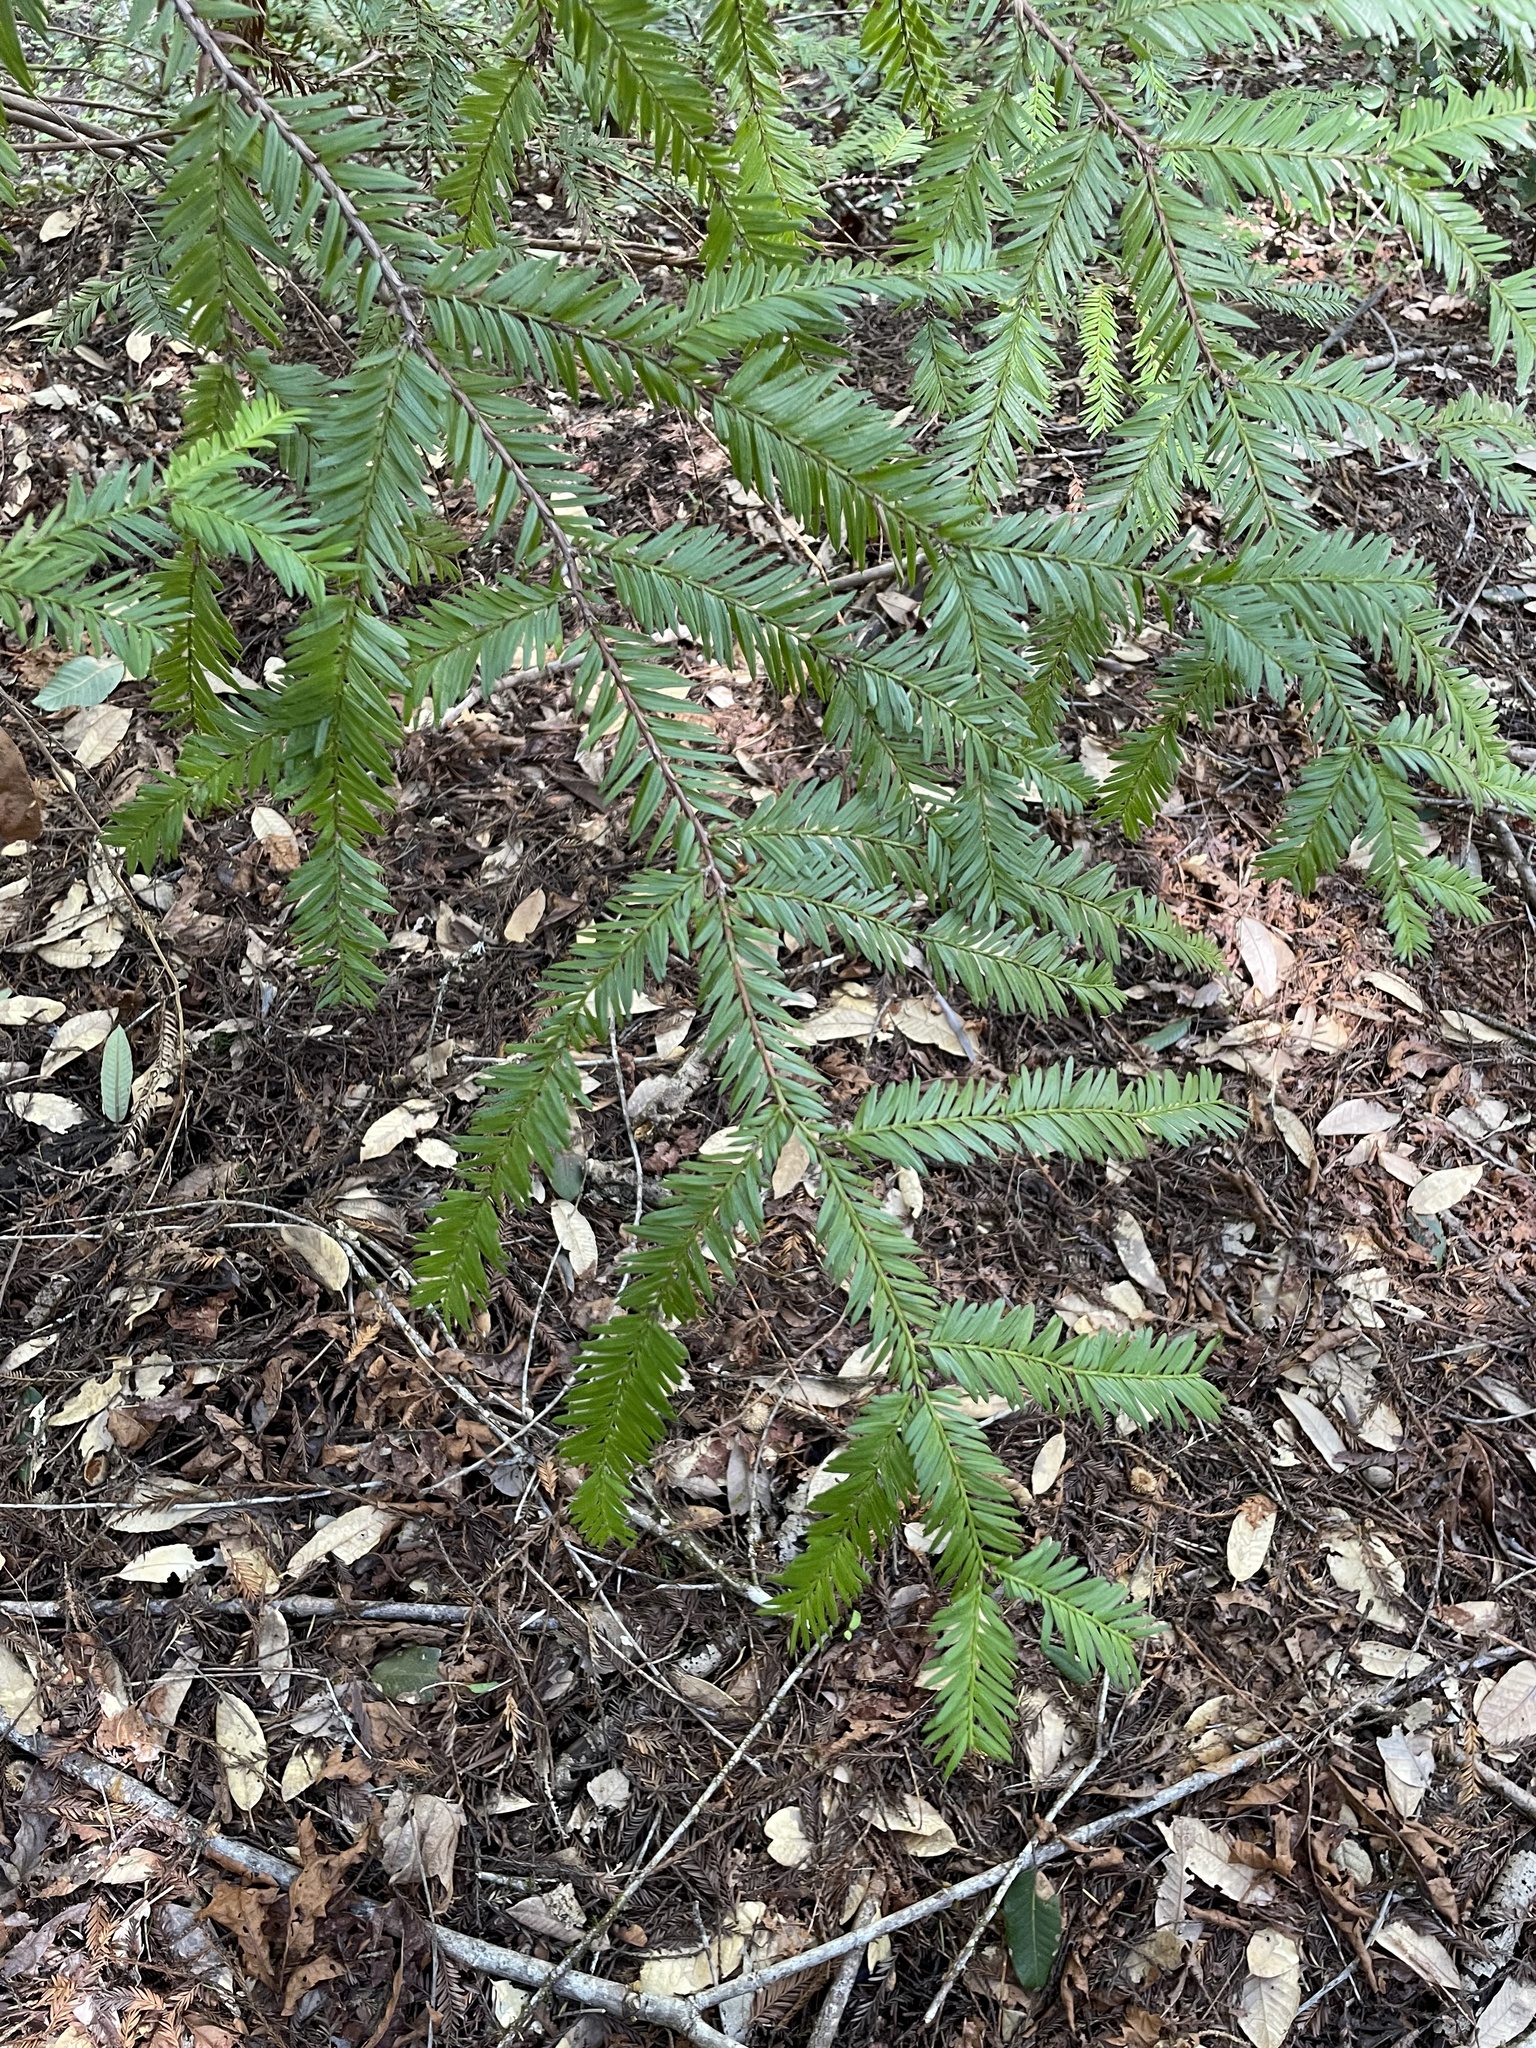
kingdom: Plantae
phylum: Tracheophyta
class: Pinopsida
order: Pinales
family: Cupressaceae
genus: Sequoia
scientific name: Sequoia sempervirens
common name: Coast redwood
